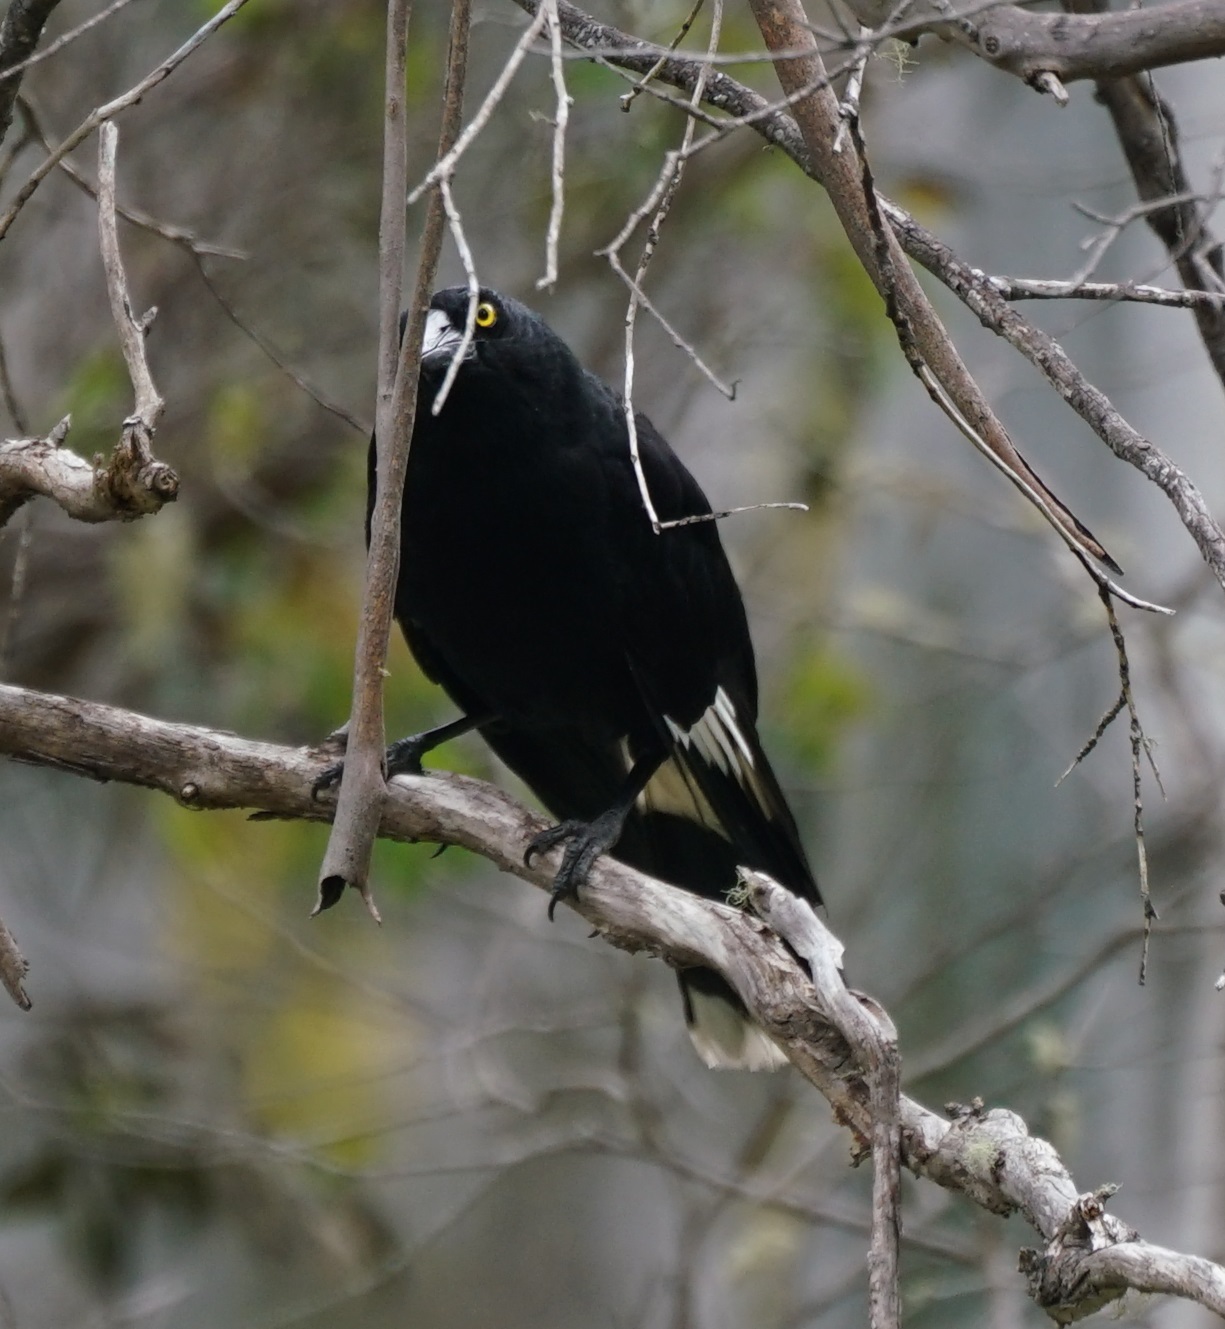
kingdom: Animalia
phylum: Chordata
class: Aves
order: Passeriformes
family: Cracticidae
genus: Strepera
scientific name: Strepera graculina
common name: Pied currawong
